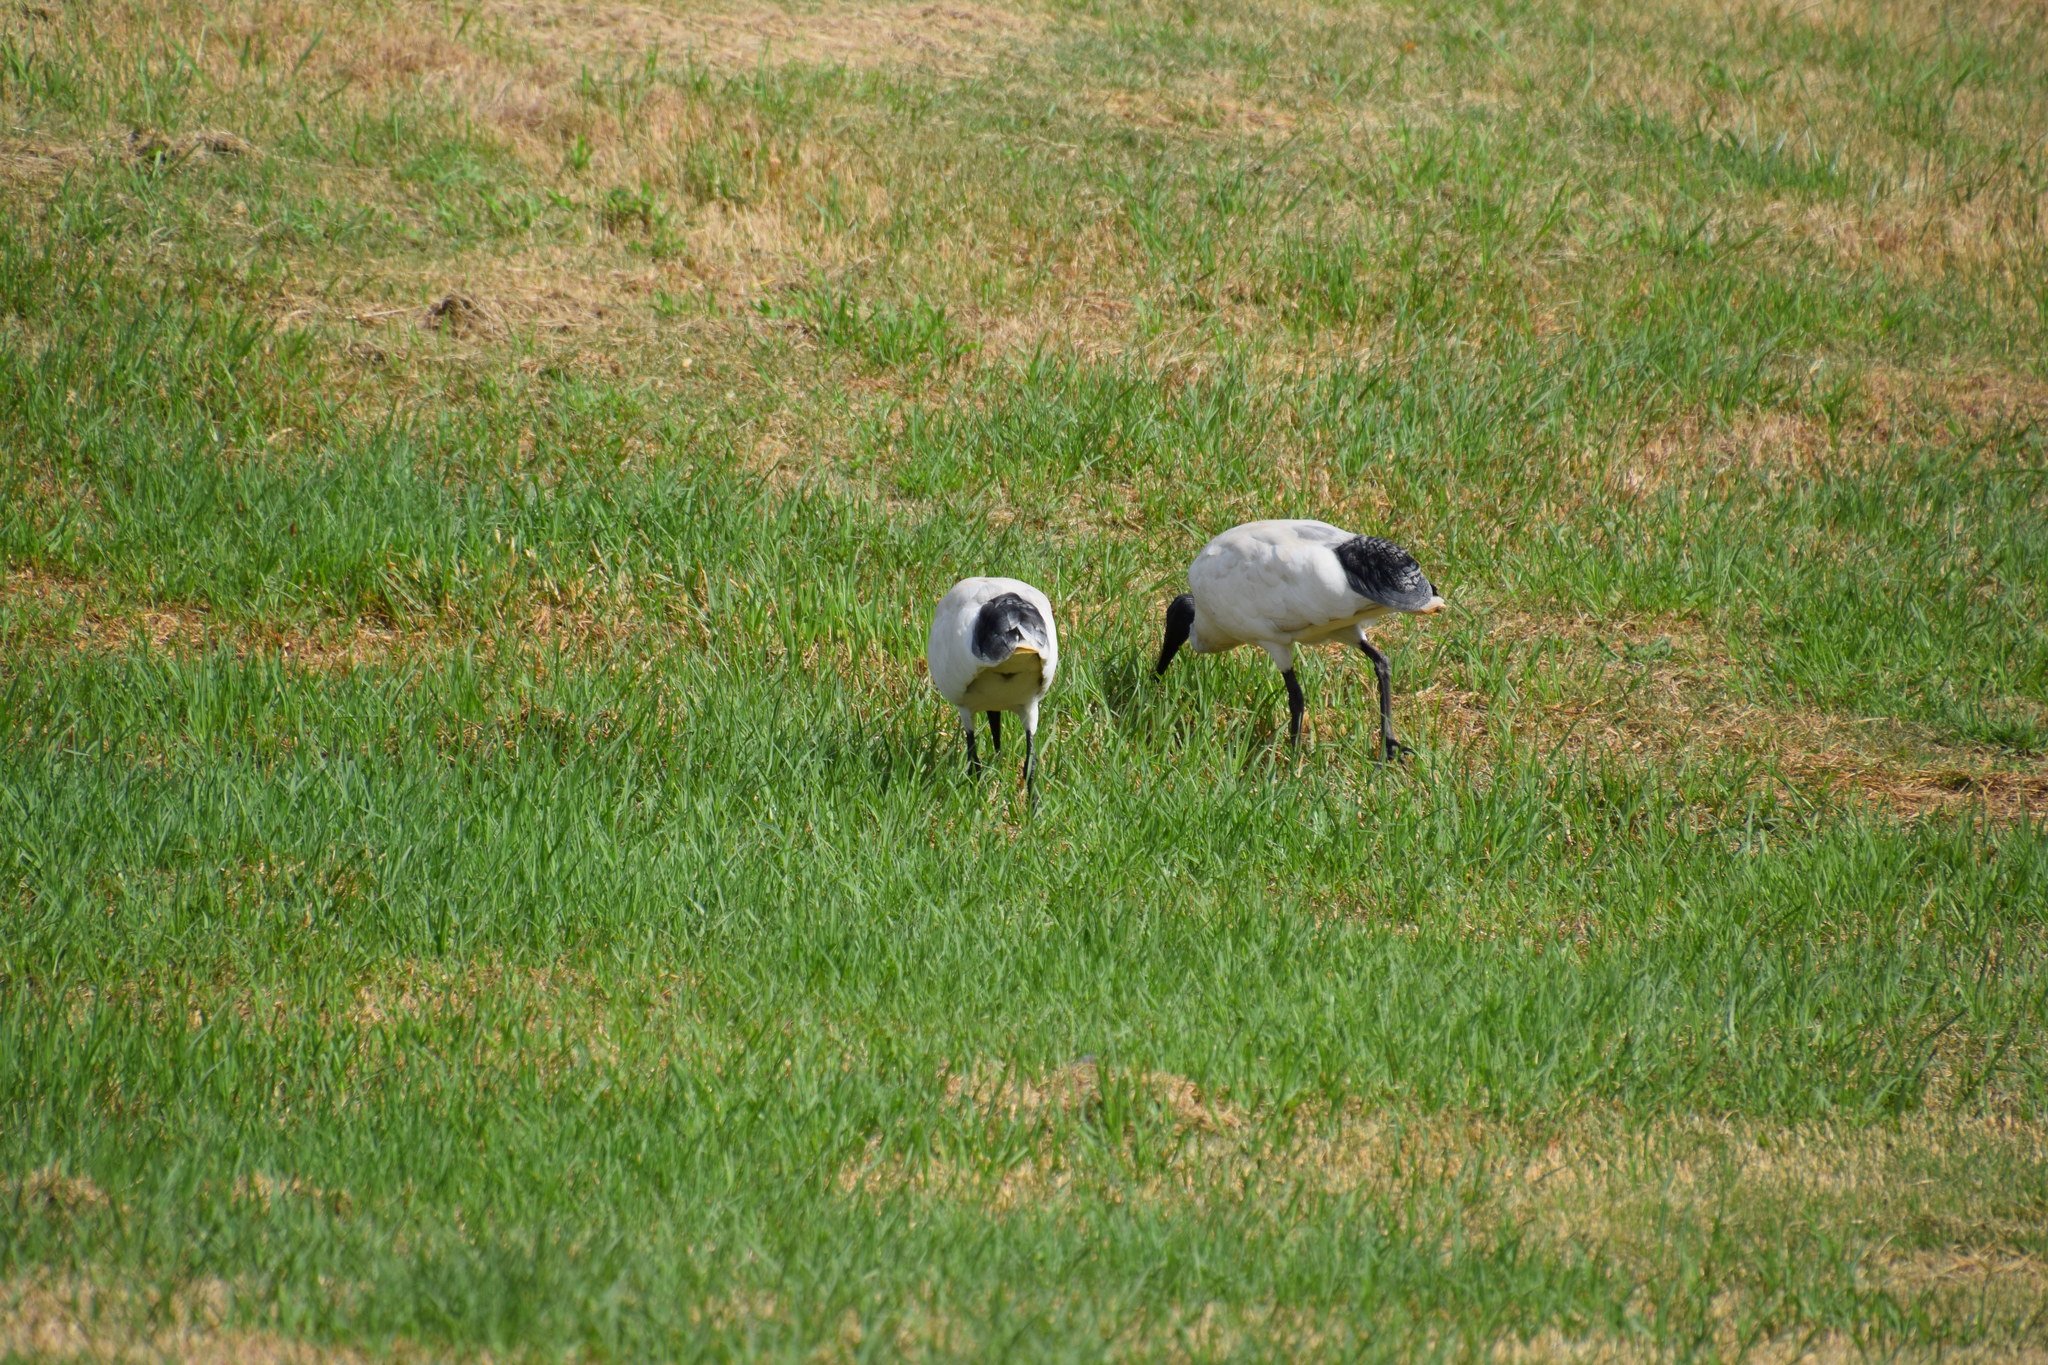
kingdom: Animalia
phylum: Chordata
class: Aves
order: Pelecaniformes
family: Threskiornithidae
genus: Threskiornis
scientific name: Threskiornis molucca
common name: Australian white ibis
